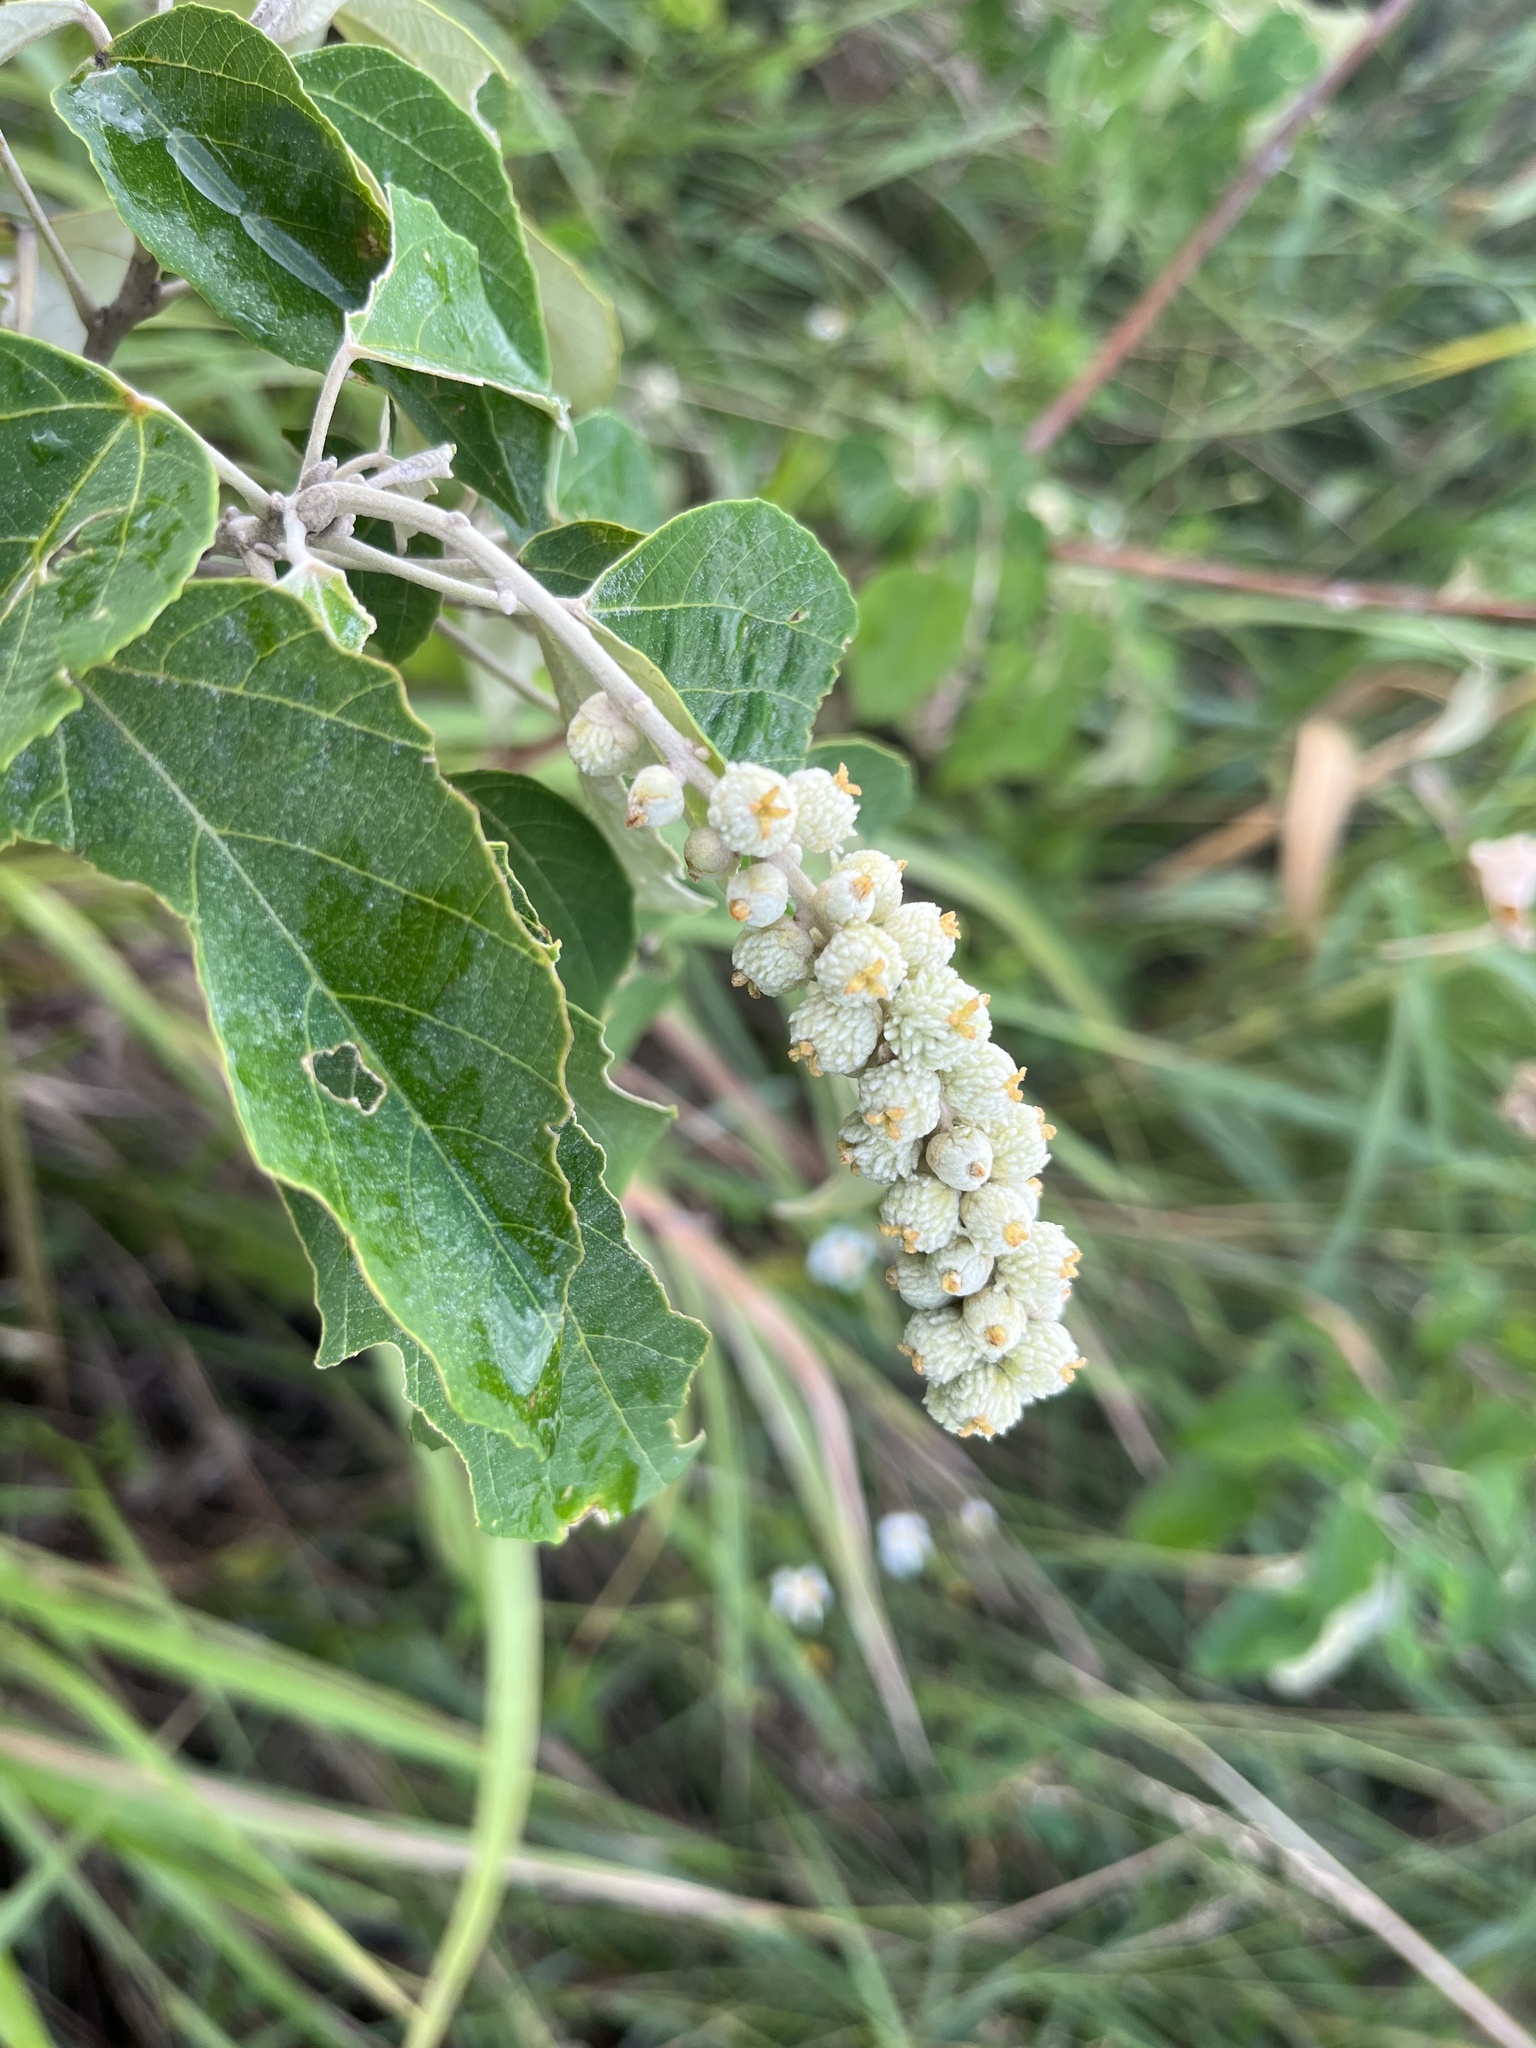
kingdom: Plantae
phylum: Tracheophyta
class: Magnoliopsida
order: Malpighiales
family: Euphorbiaceae
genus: Mallotus
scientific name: Mallotus apelta
